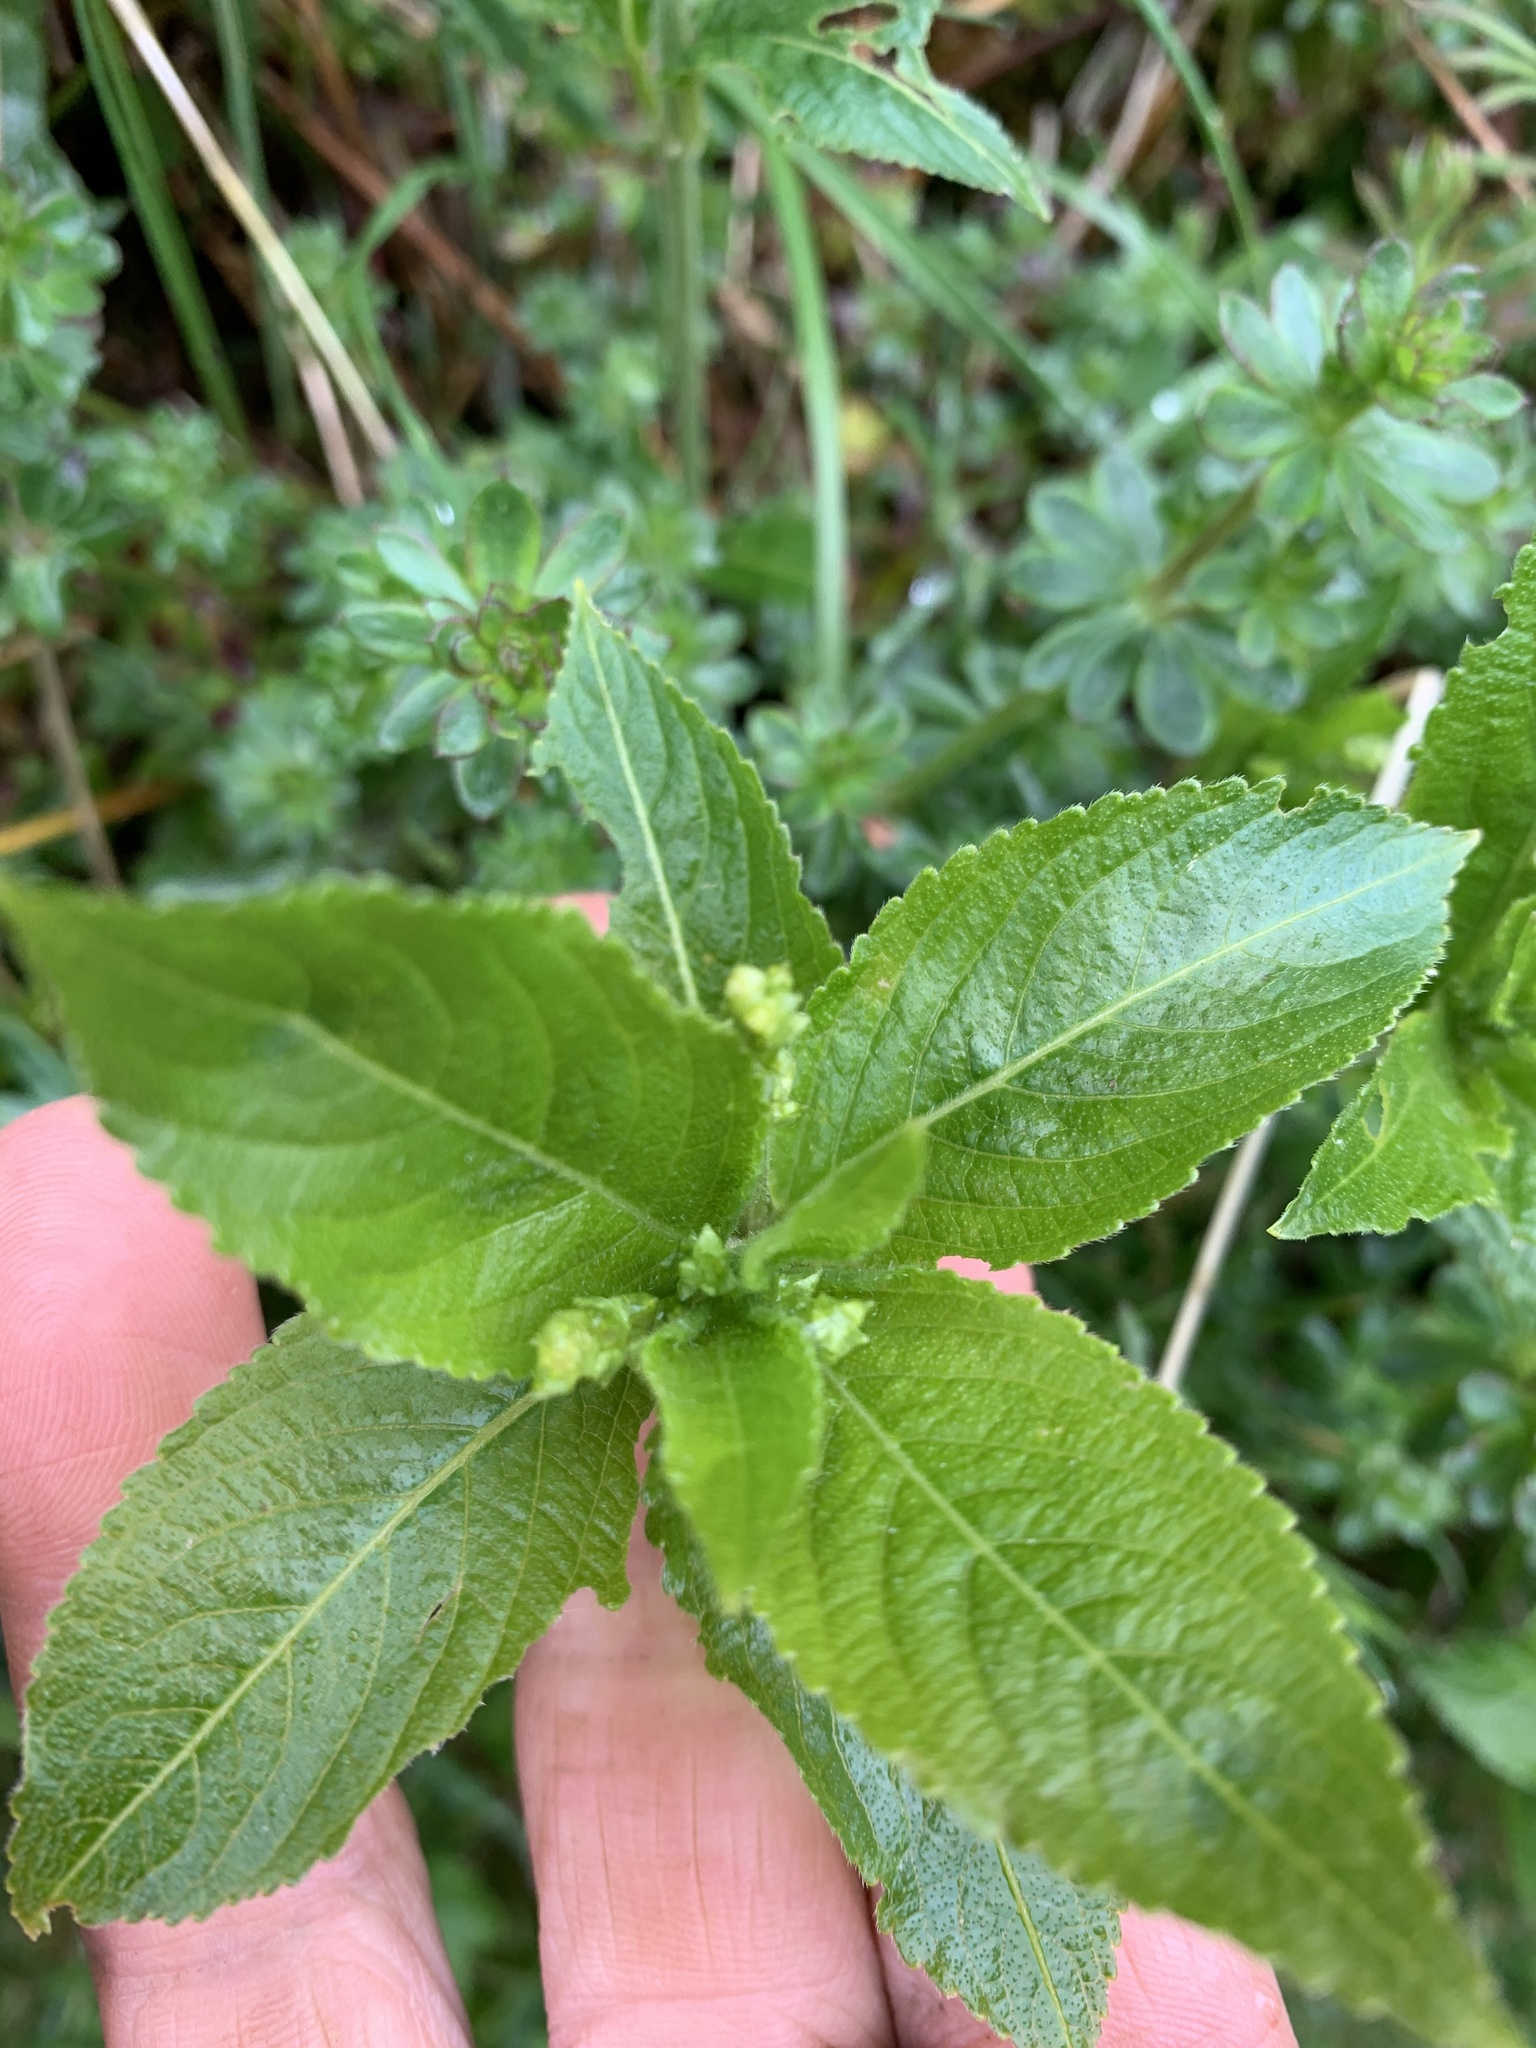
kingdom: Plantae
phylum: Tracheophyta
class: Magnoliopsida
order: Malpighiales
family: Euphorbiaceae
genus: Mercurialis
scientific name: Mercurialis perennis
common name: Dog mercury
